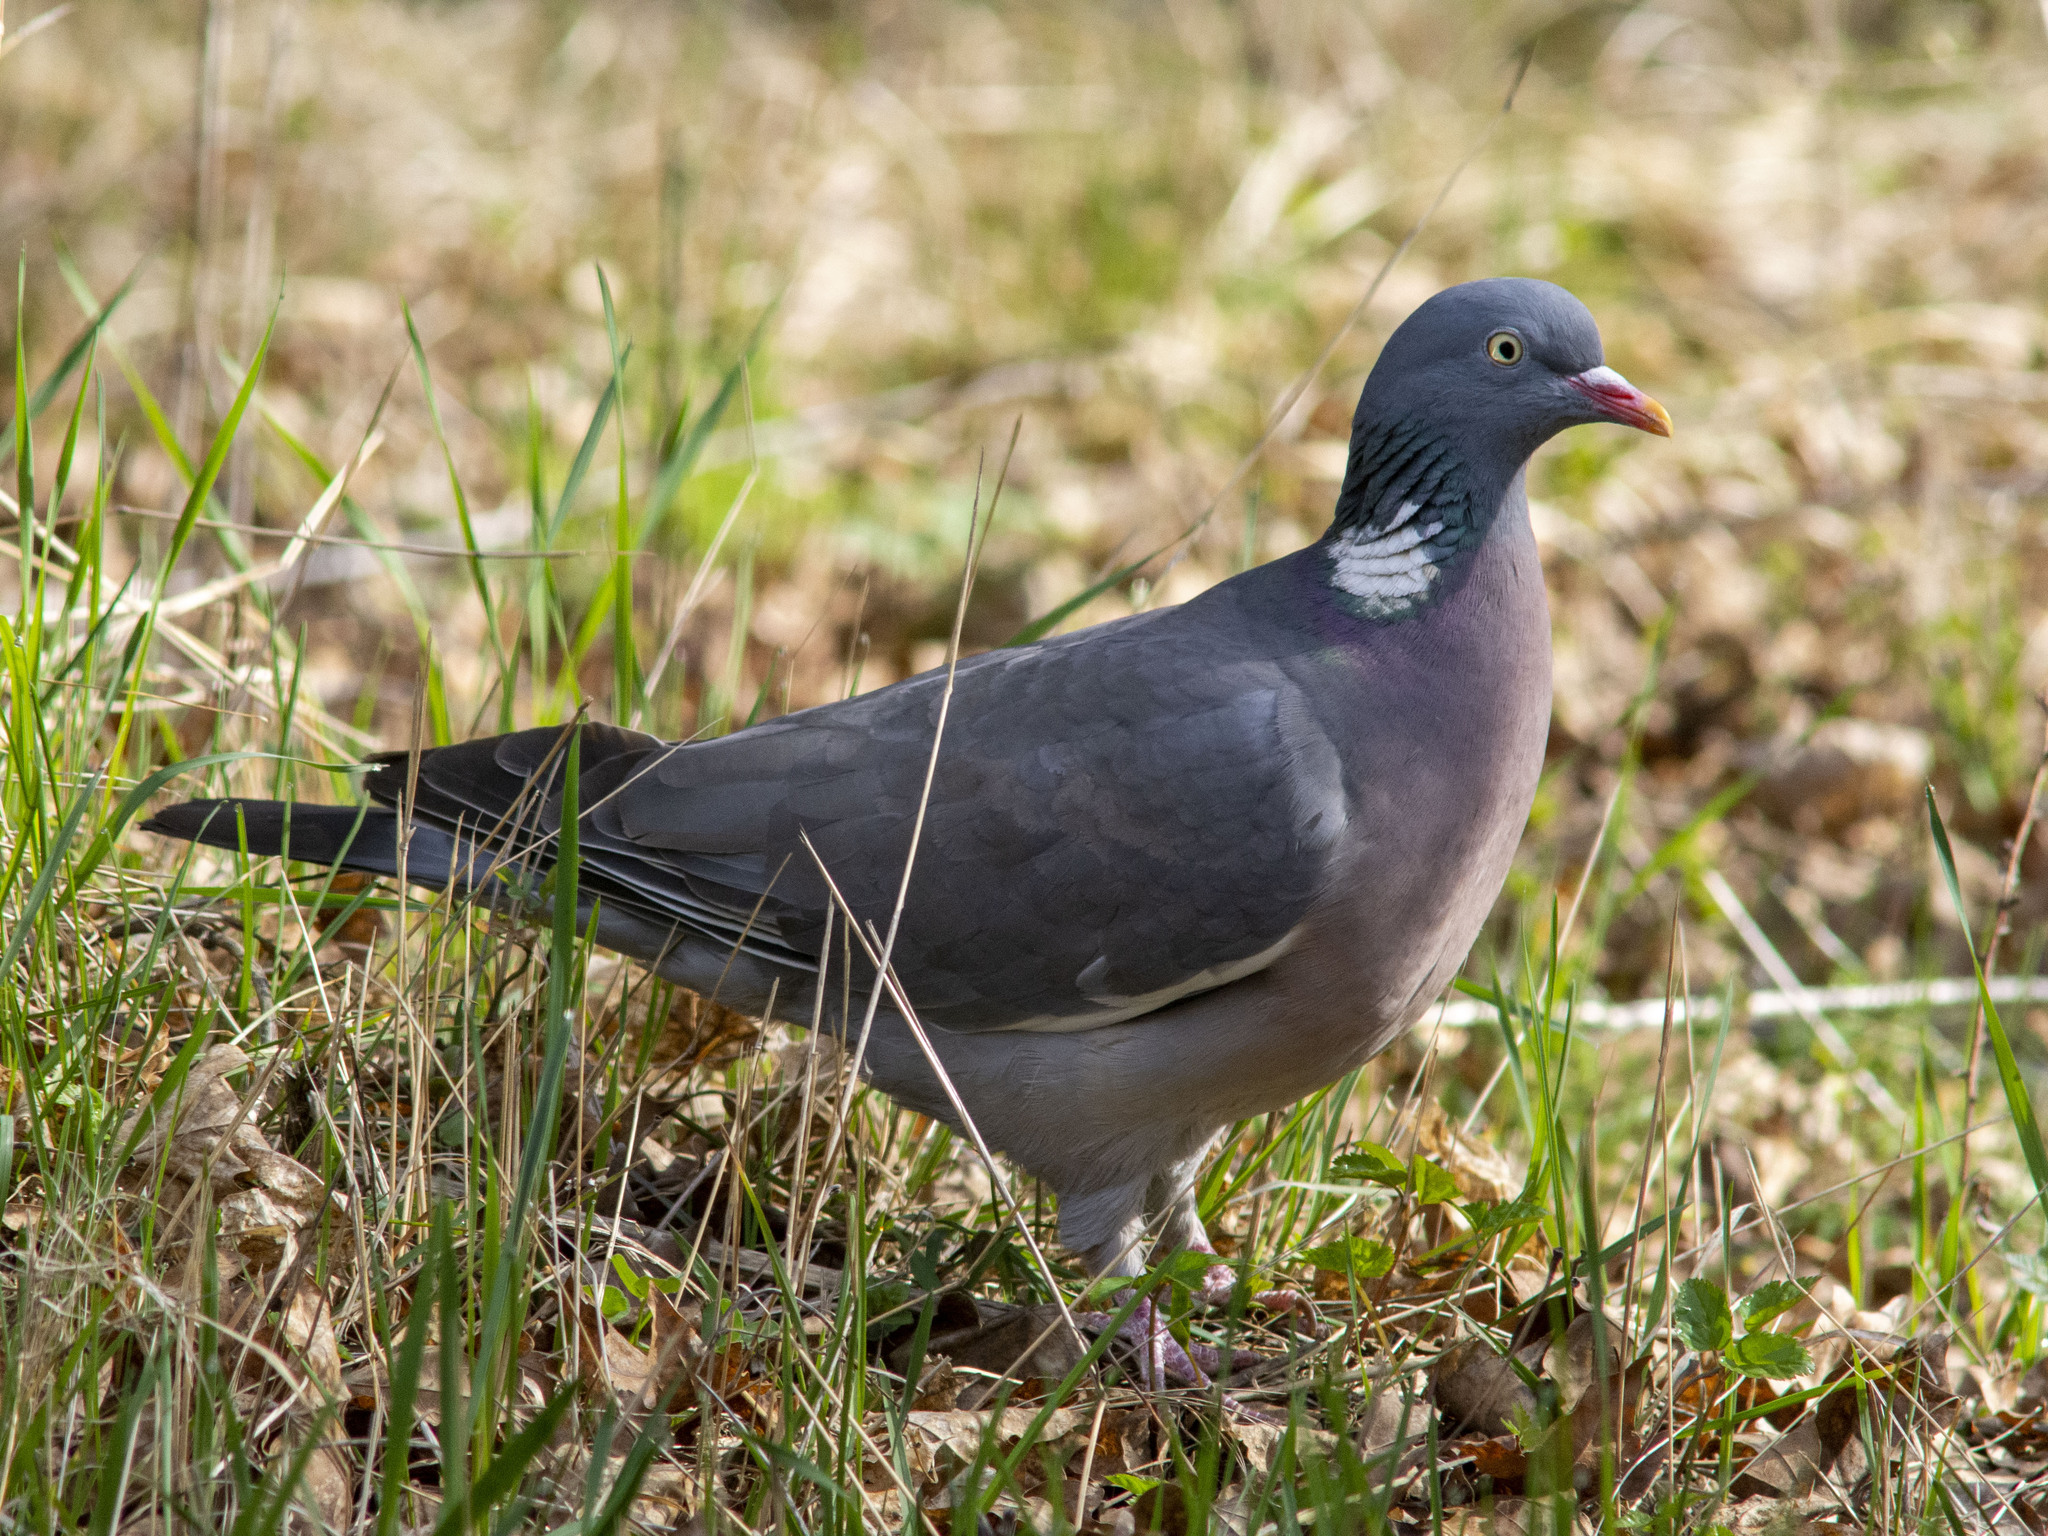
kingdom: Animalia
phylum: Chordata
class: Aves
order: Columbiformes
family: Columbidae
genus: Columba
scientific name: Columba palumbus
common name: Common wood pigeon
